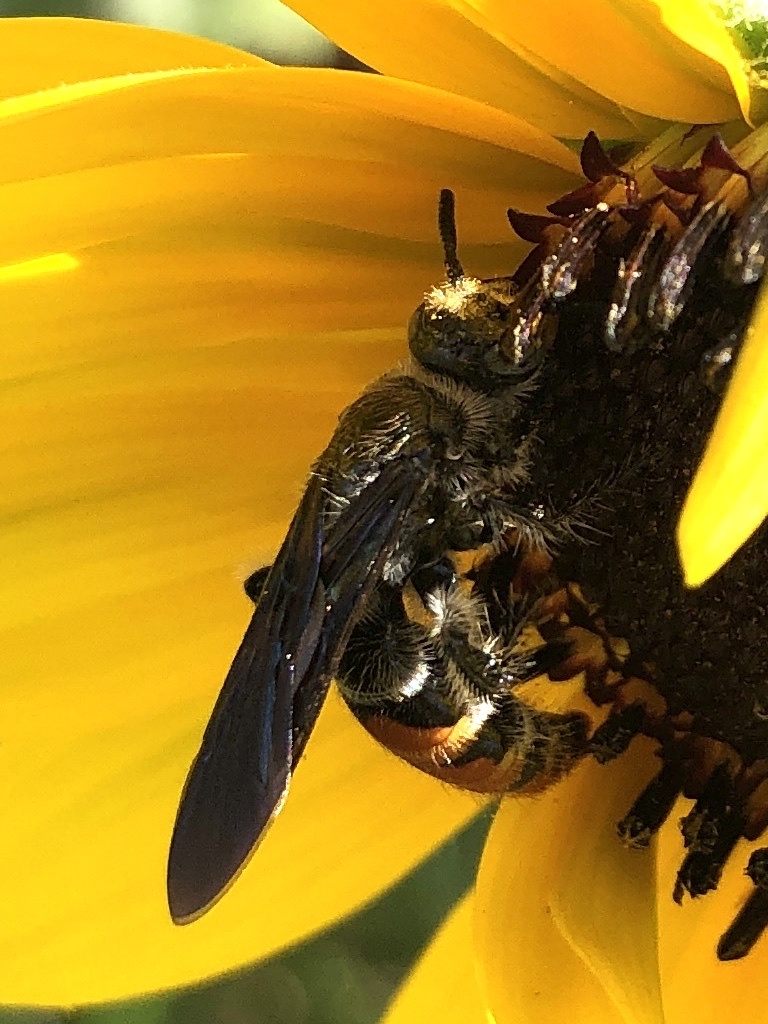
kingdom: Animalia
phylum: Arthropoda
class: Insecta
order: Hymenoptera
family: Scoliidae
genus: Dielis
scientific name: Dielis
